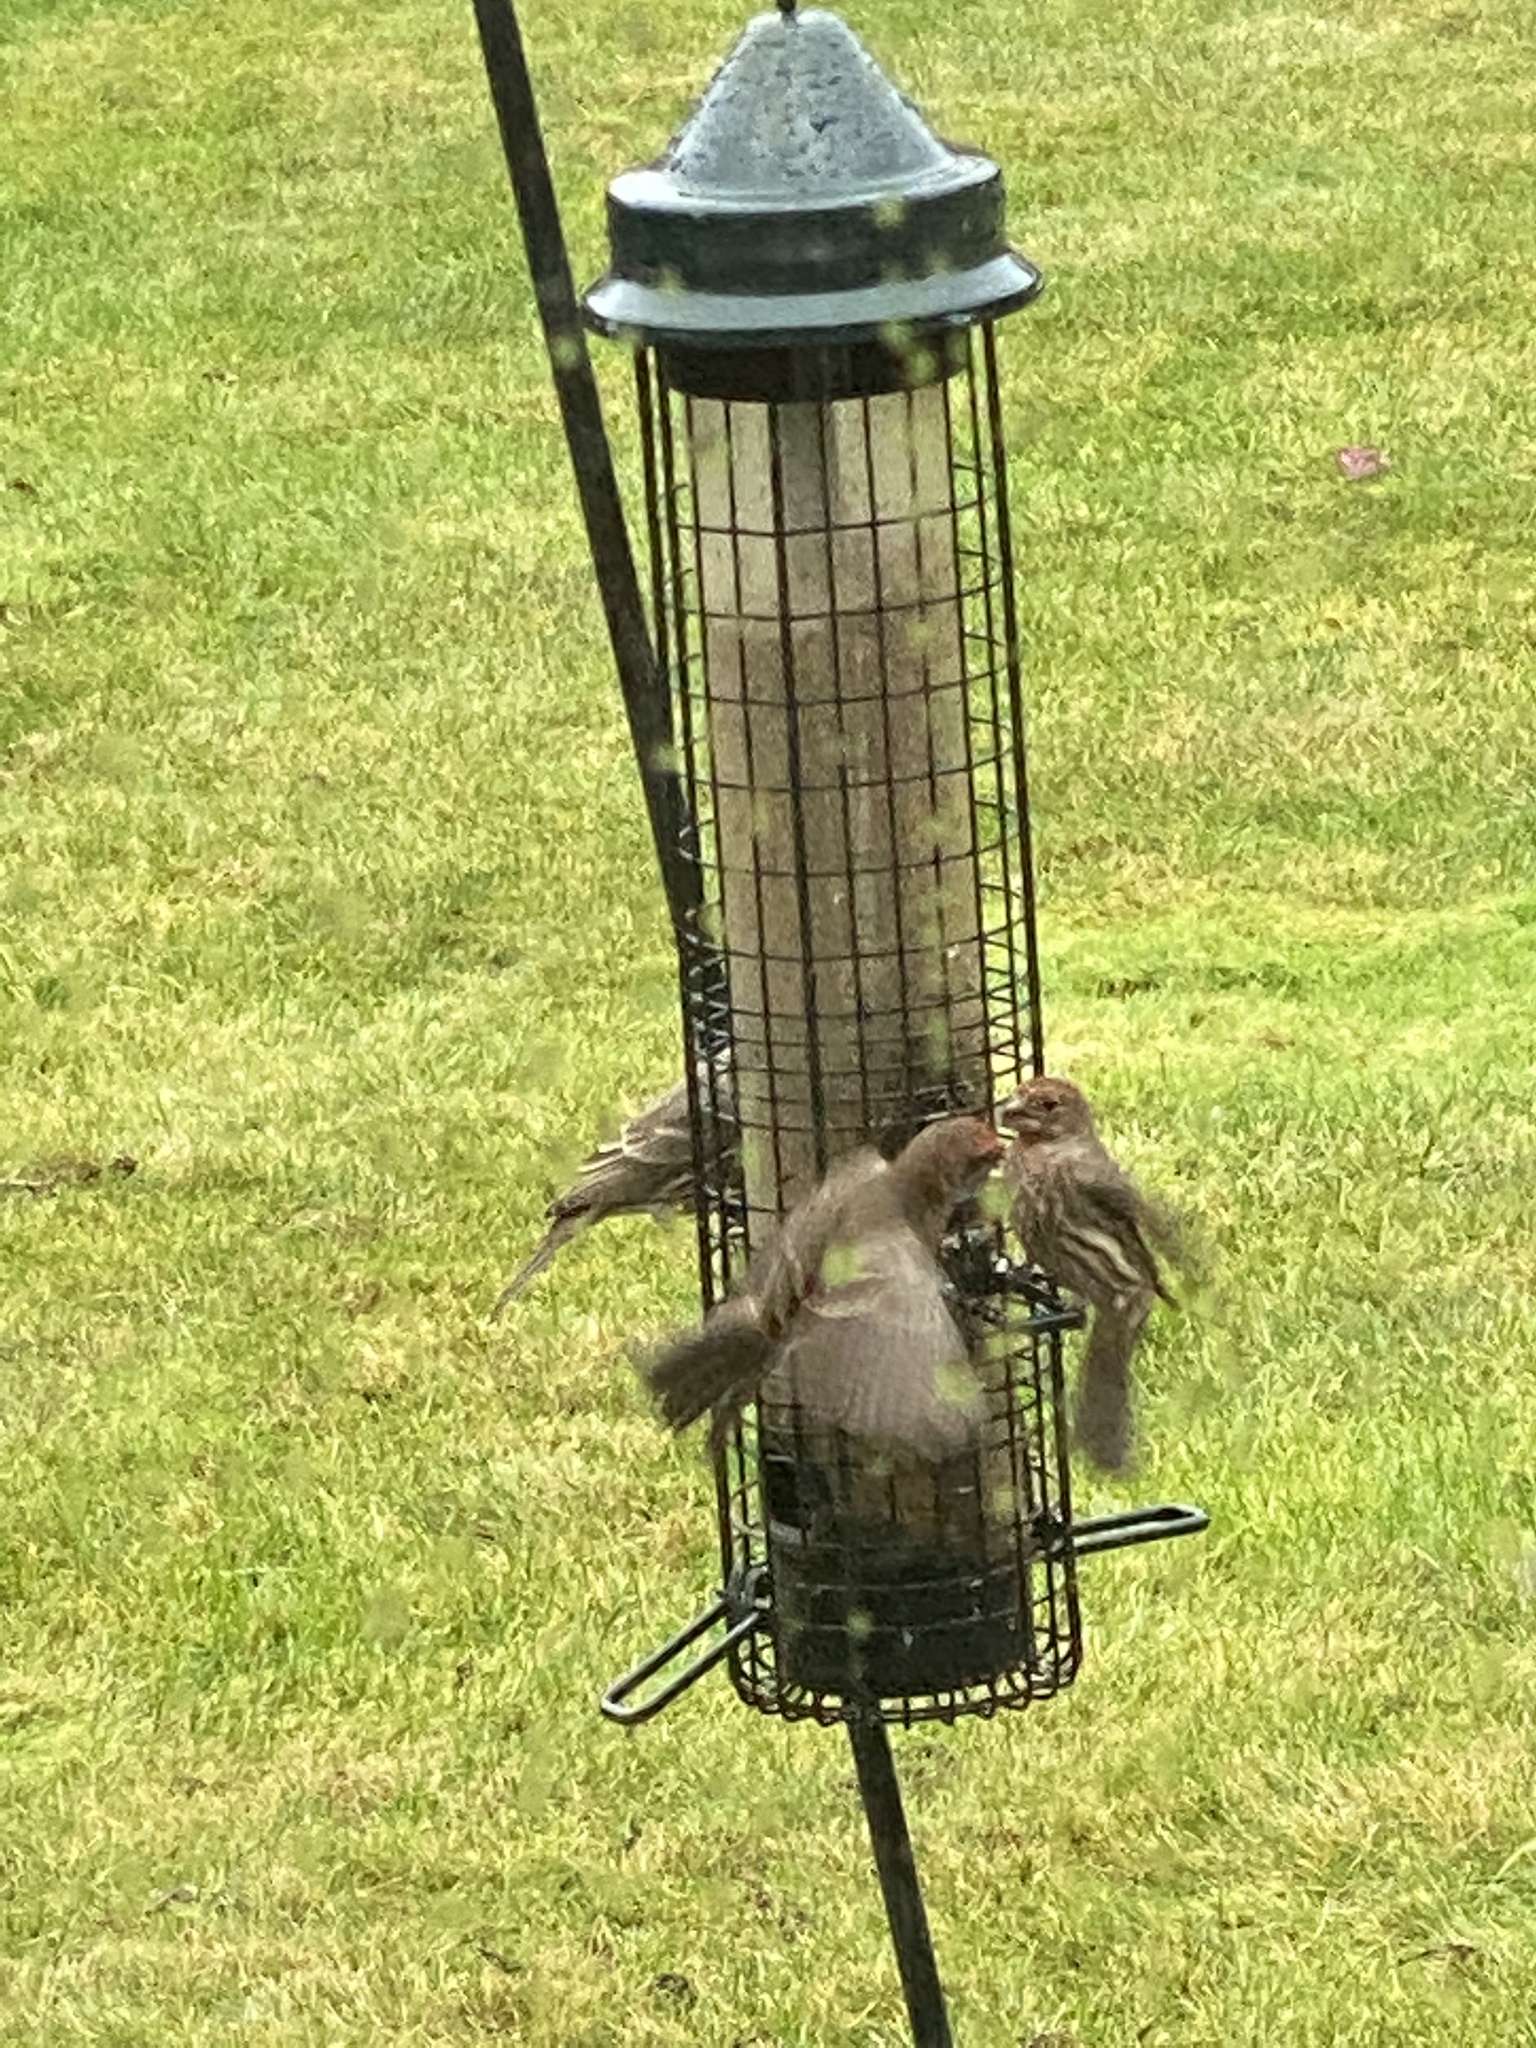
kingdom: Animalia
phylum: Chordata
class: Aves
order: Passeriformes
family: Fringillidae
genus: Haemorhous
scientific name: Haemorhous mexicanus
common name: House finch
